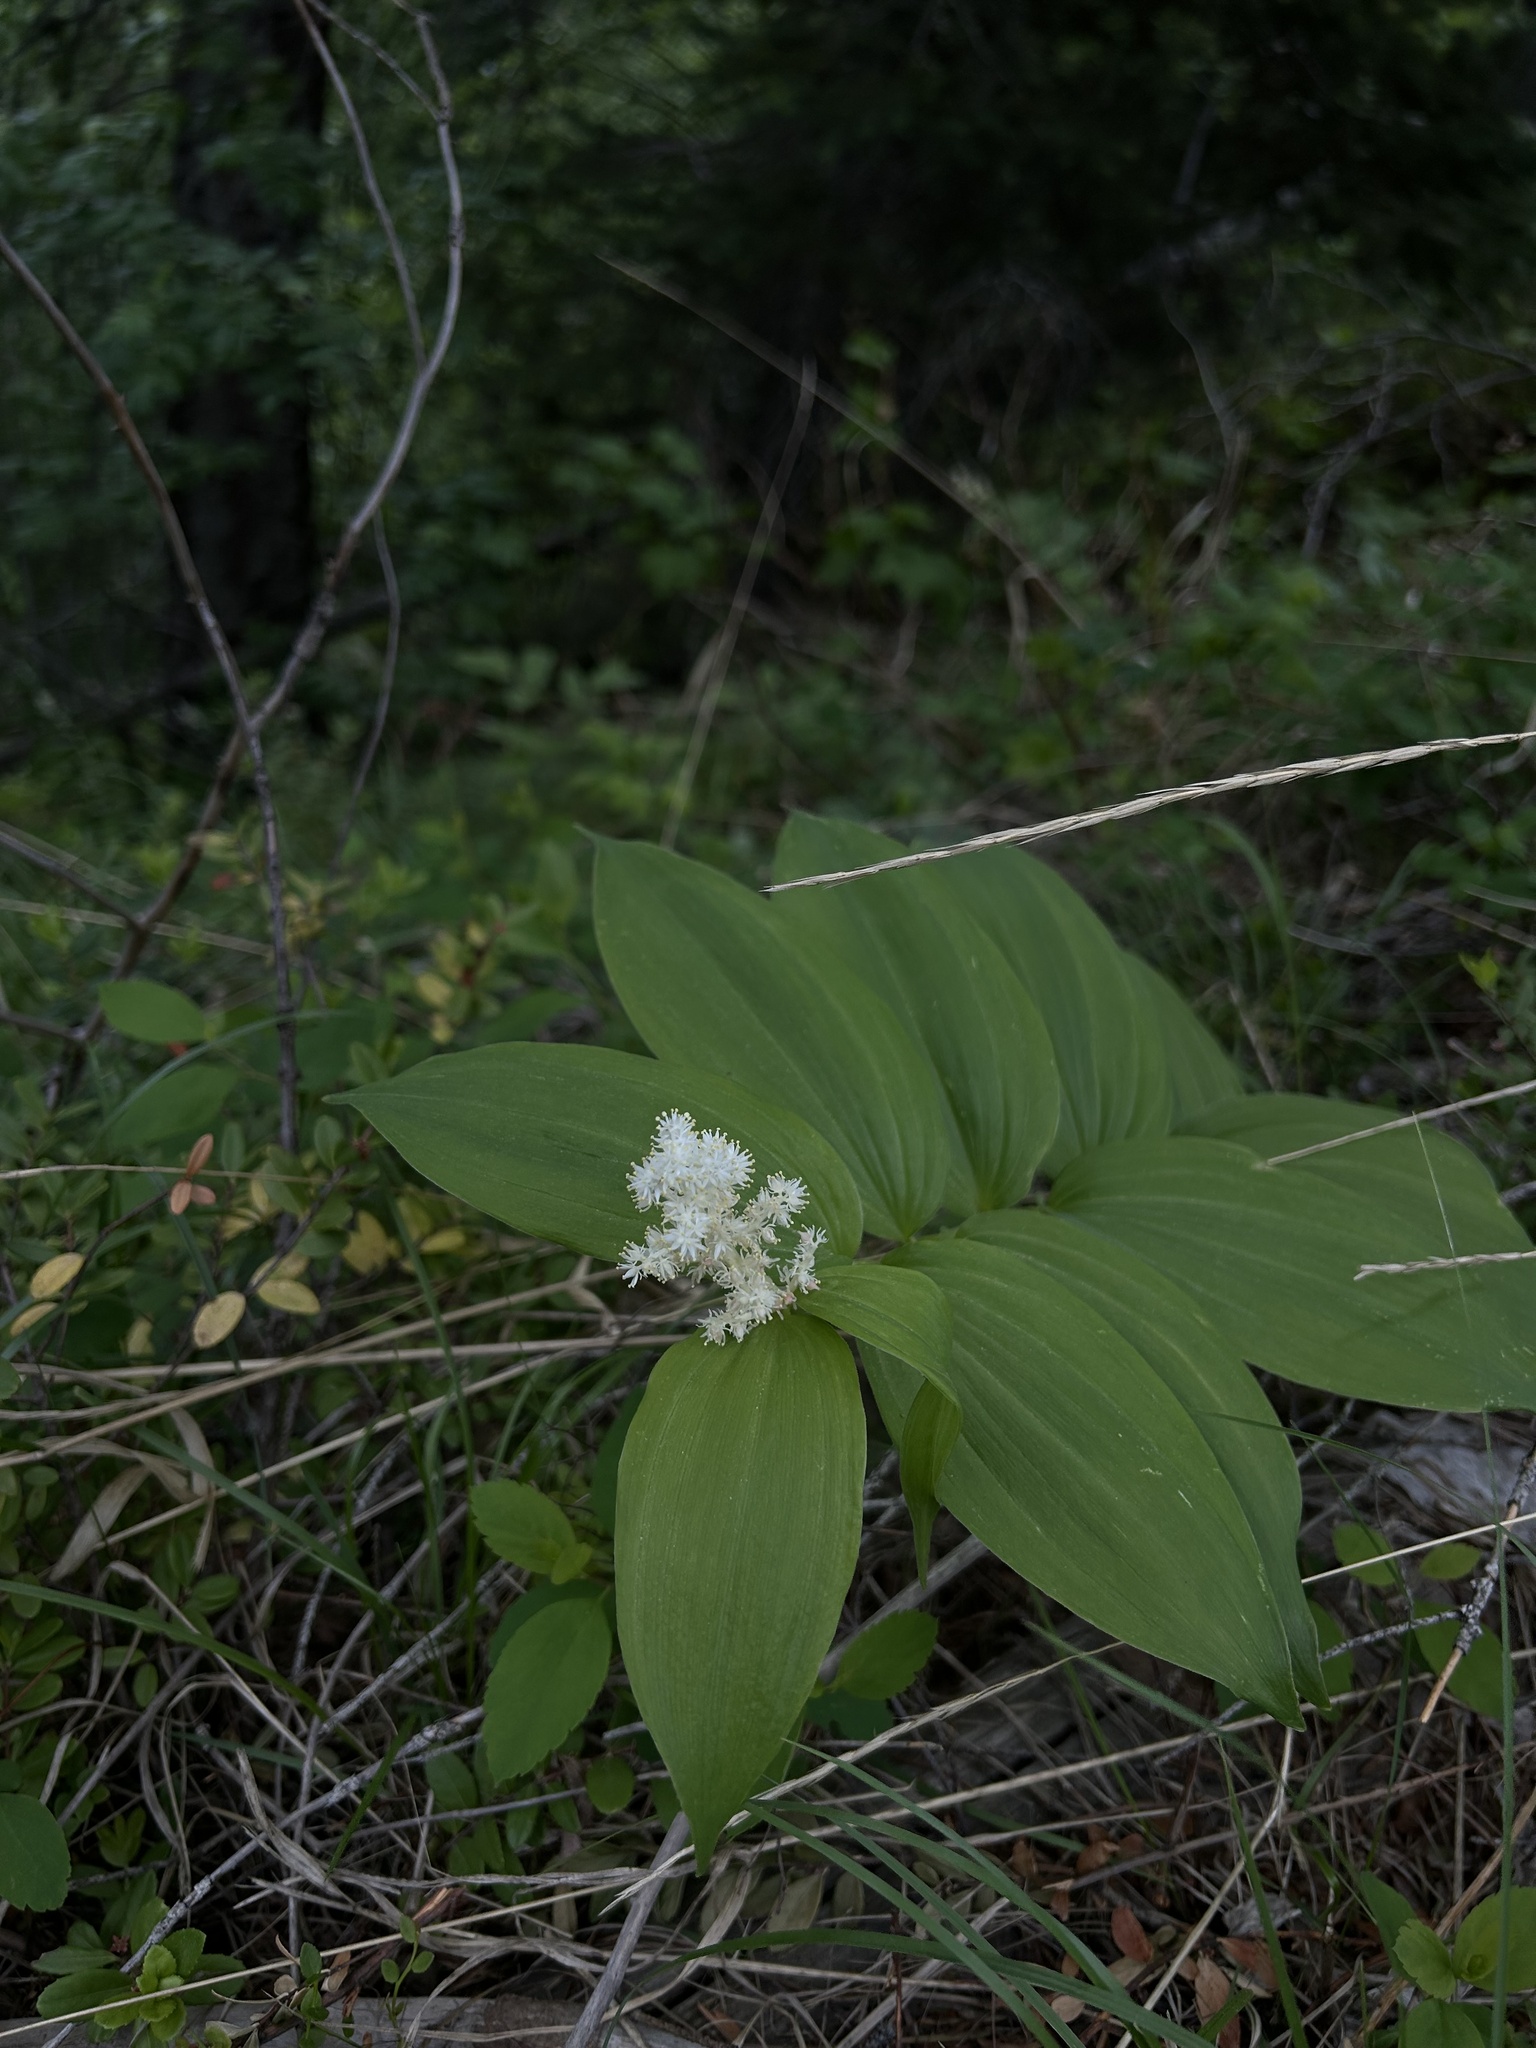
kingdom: Plantae
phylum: Tracheophyta
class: Liliopsida
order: Asparagales
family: Asparagaceae
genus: Maianthemum
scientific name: Maianthemum racemosum
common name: False spikenard
